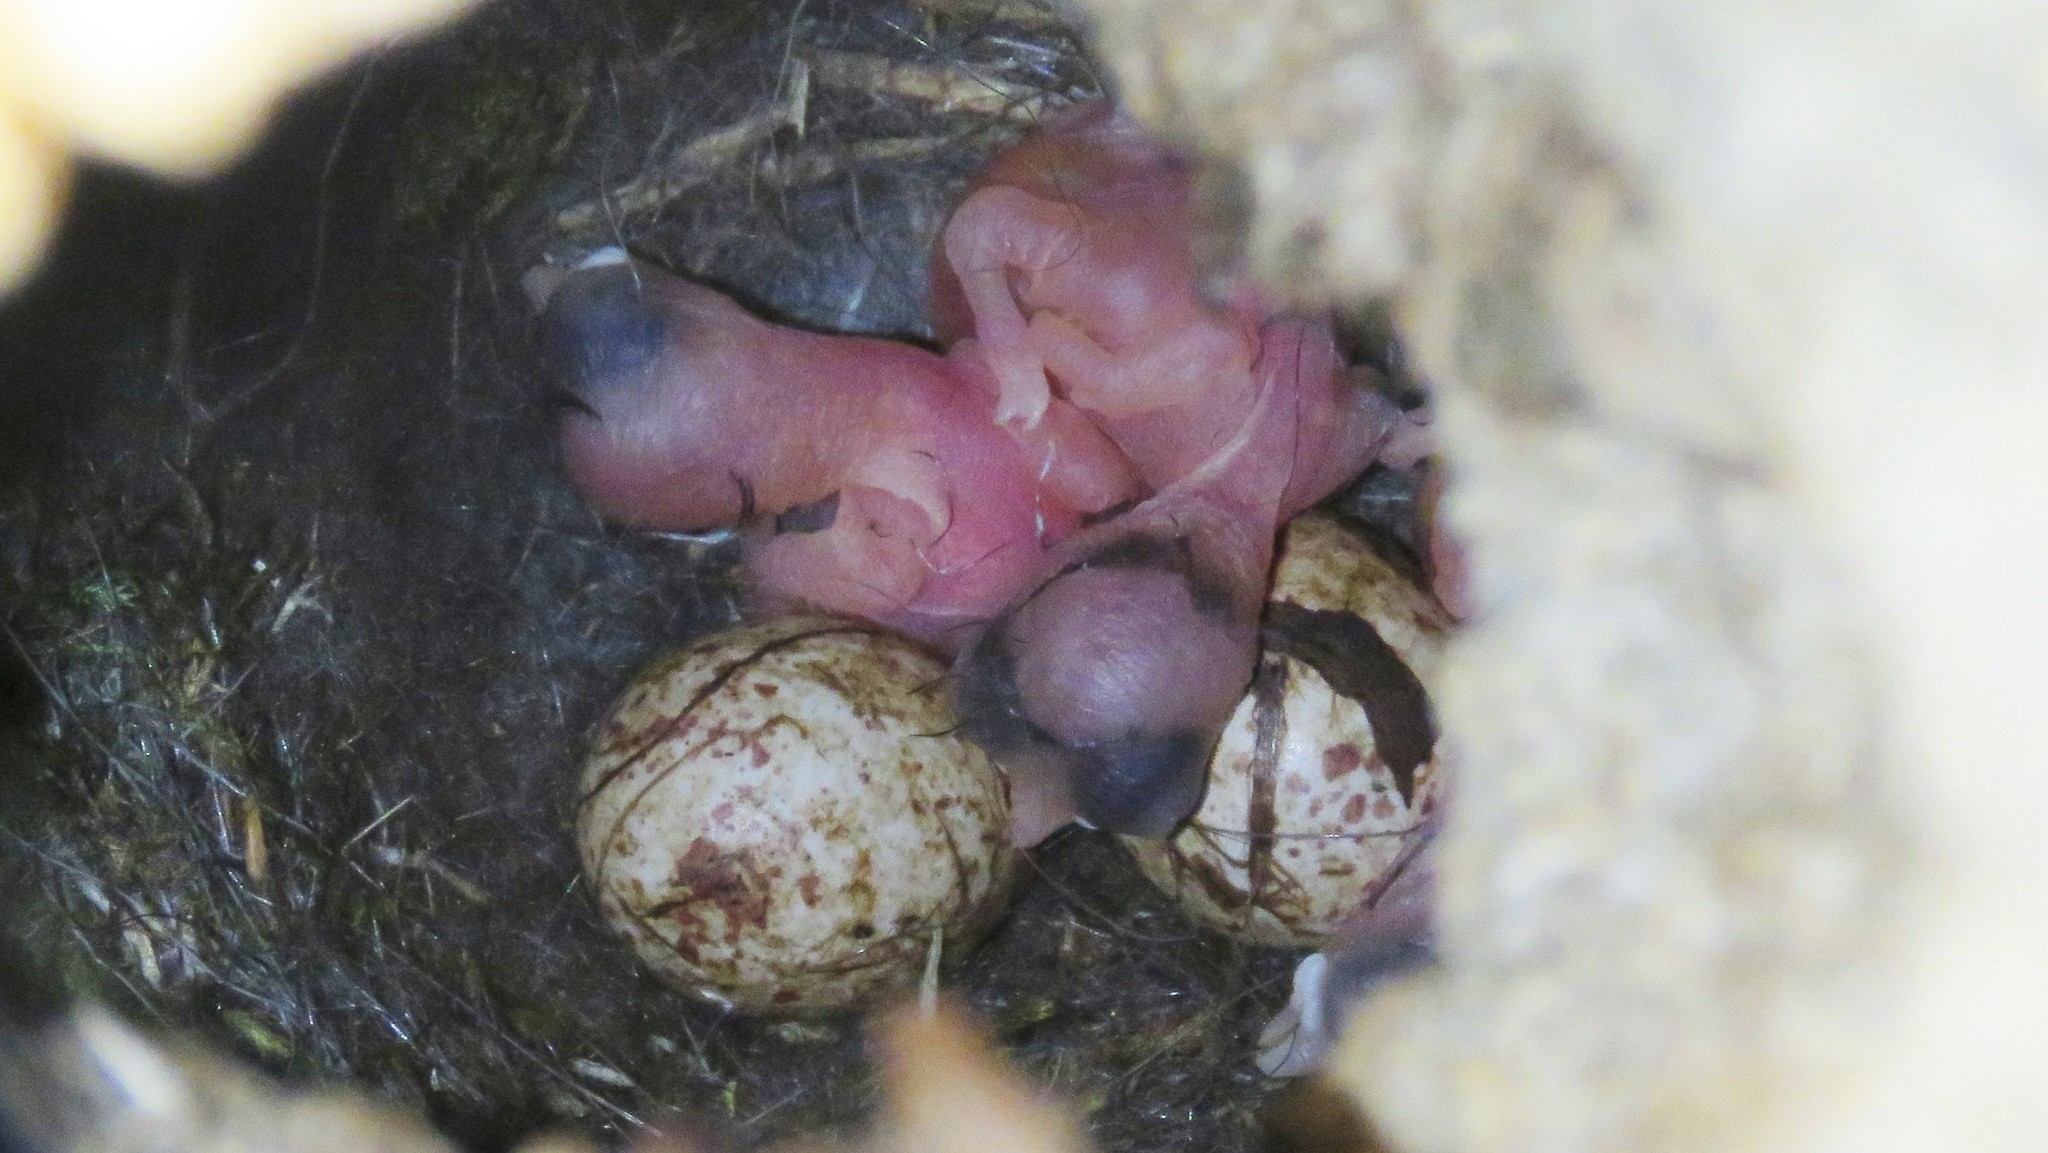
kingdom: Animalia
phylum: Chordata
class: Aves
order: Passeriformes
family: Paridae
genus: Poecile
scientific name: Poecile atricapillus
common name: Black-capped chickadee
